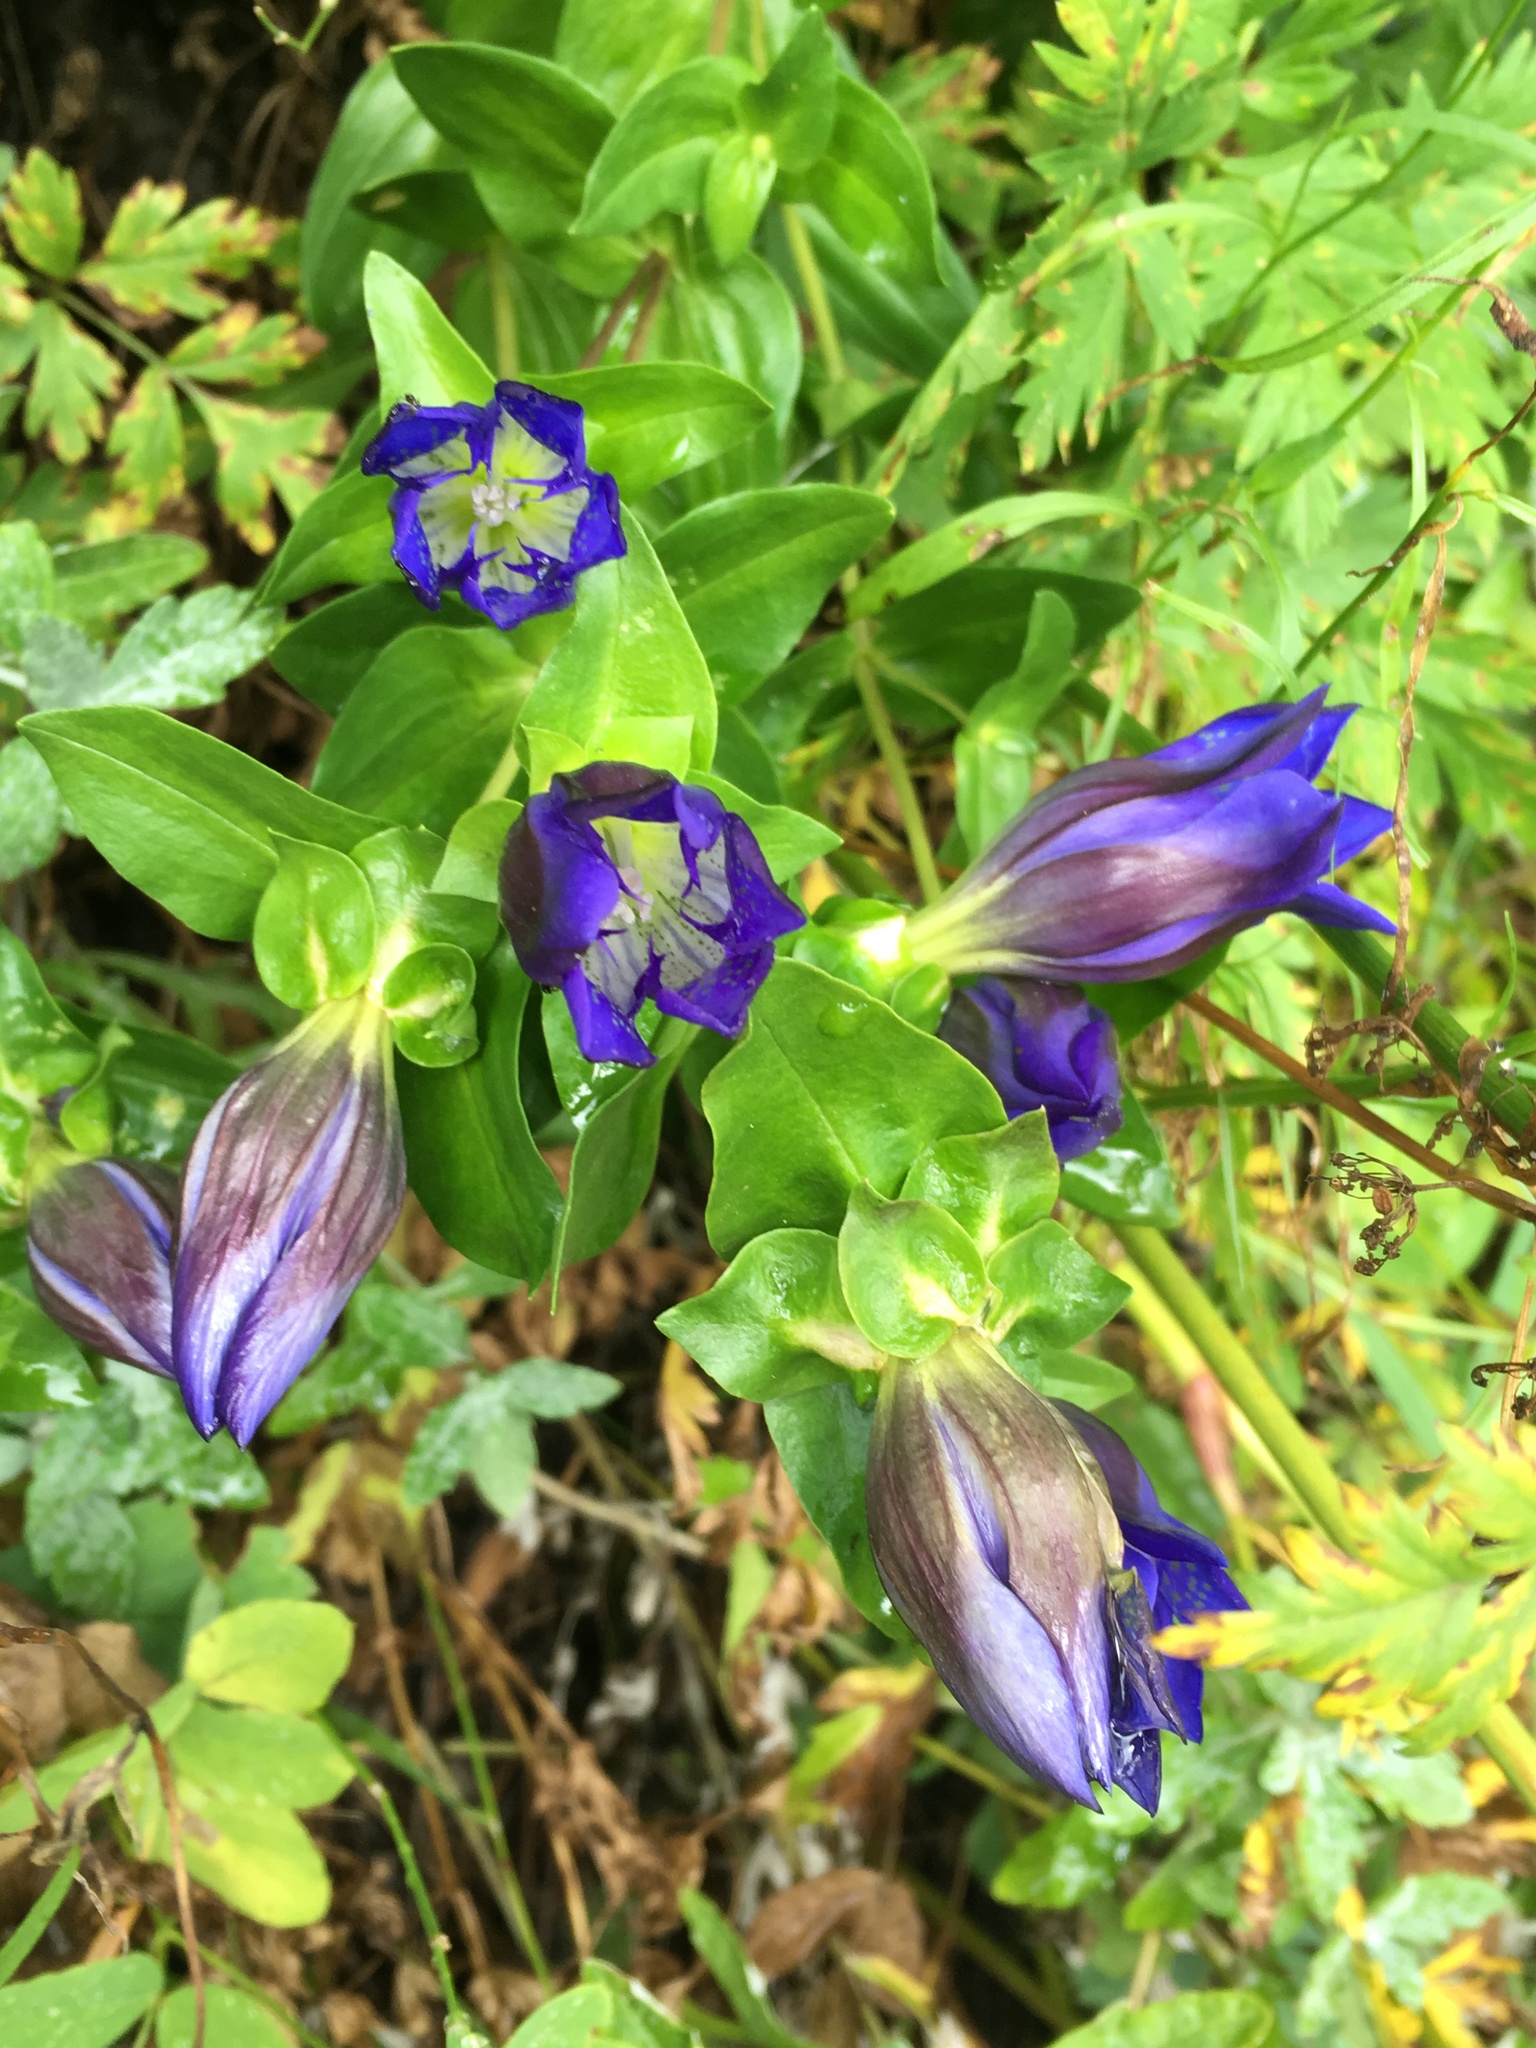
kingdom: Plantae
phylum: Tracheophyta
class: Magnoliopsida
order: Gentianales
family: Gentianaceae
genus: Gentiana
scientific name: Gentiana calycosa
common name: Rainier pleated gentian
